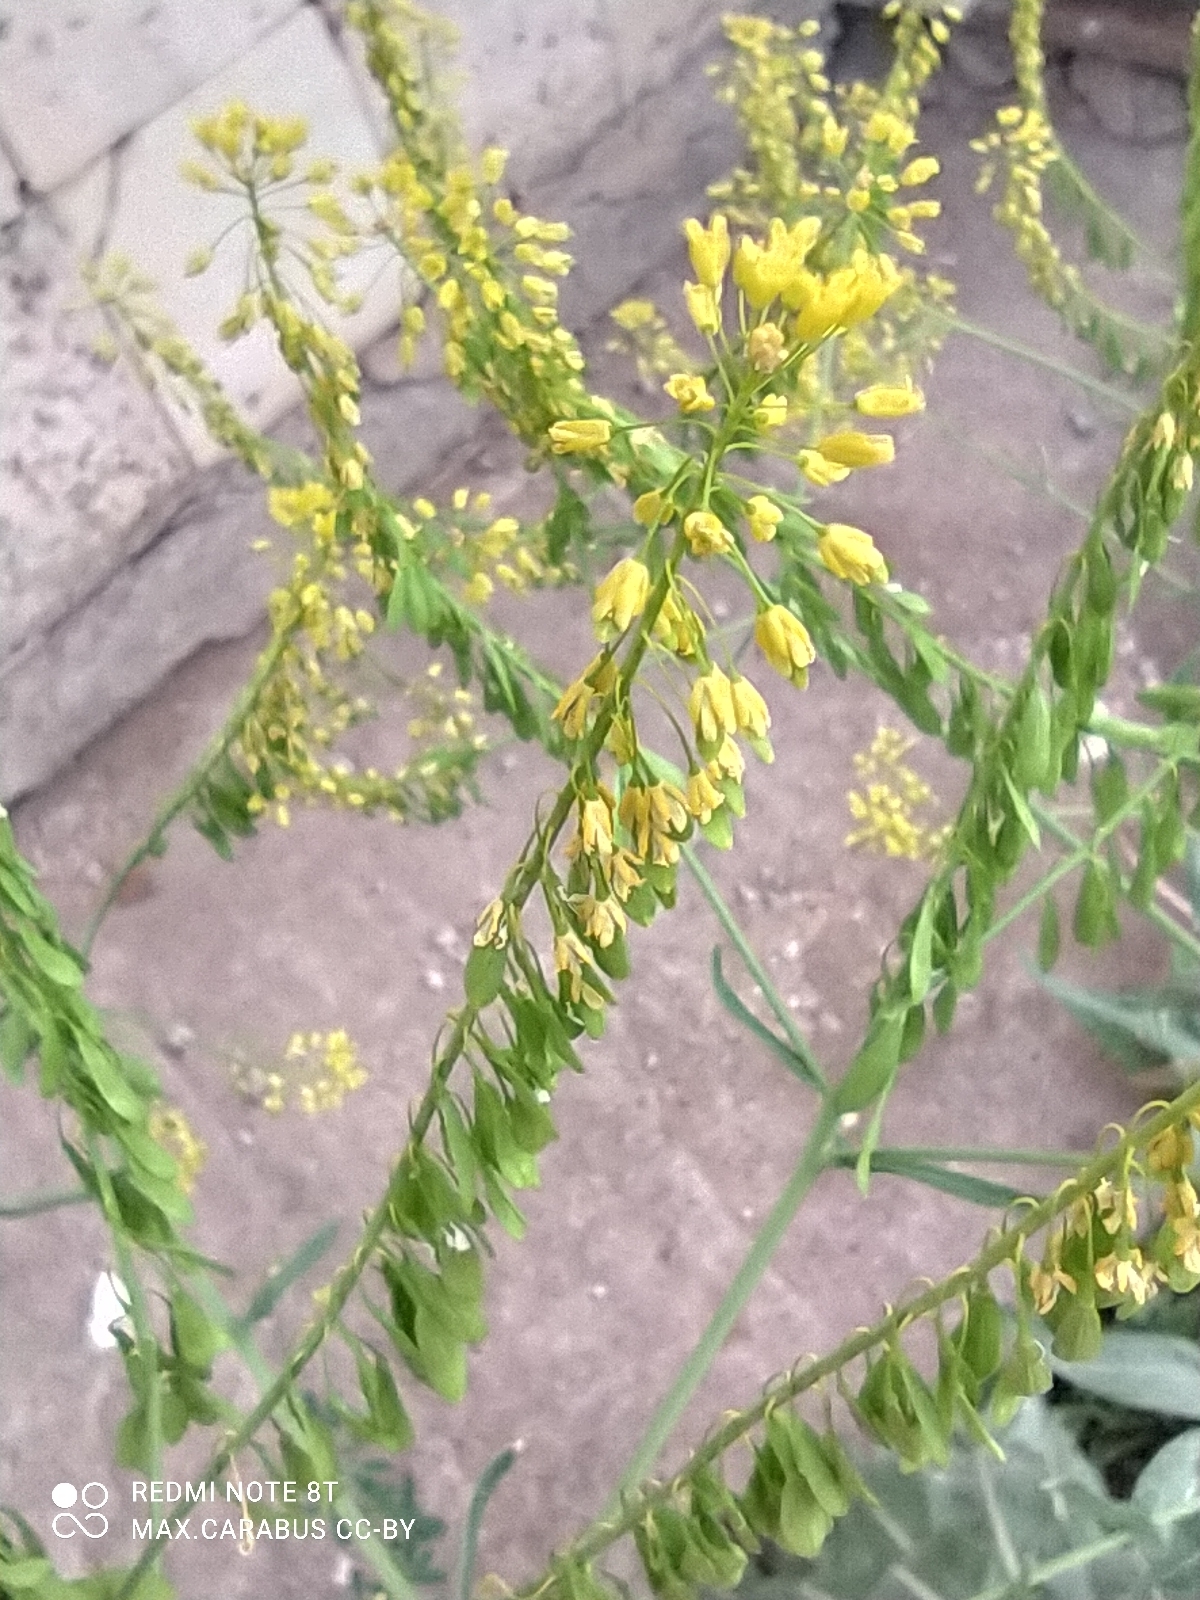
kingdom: Plantae
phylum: Tracheophyta
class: Magnoliopsida
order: Brassicales
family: Brassicaceae
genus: Isatis
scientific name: Isatis tinctoria
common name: Woad
